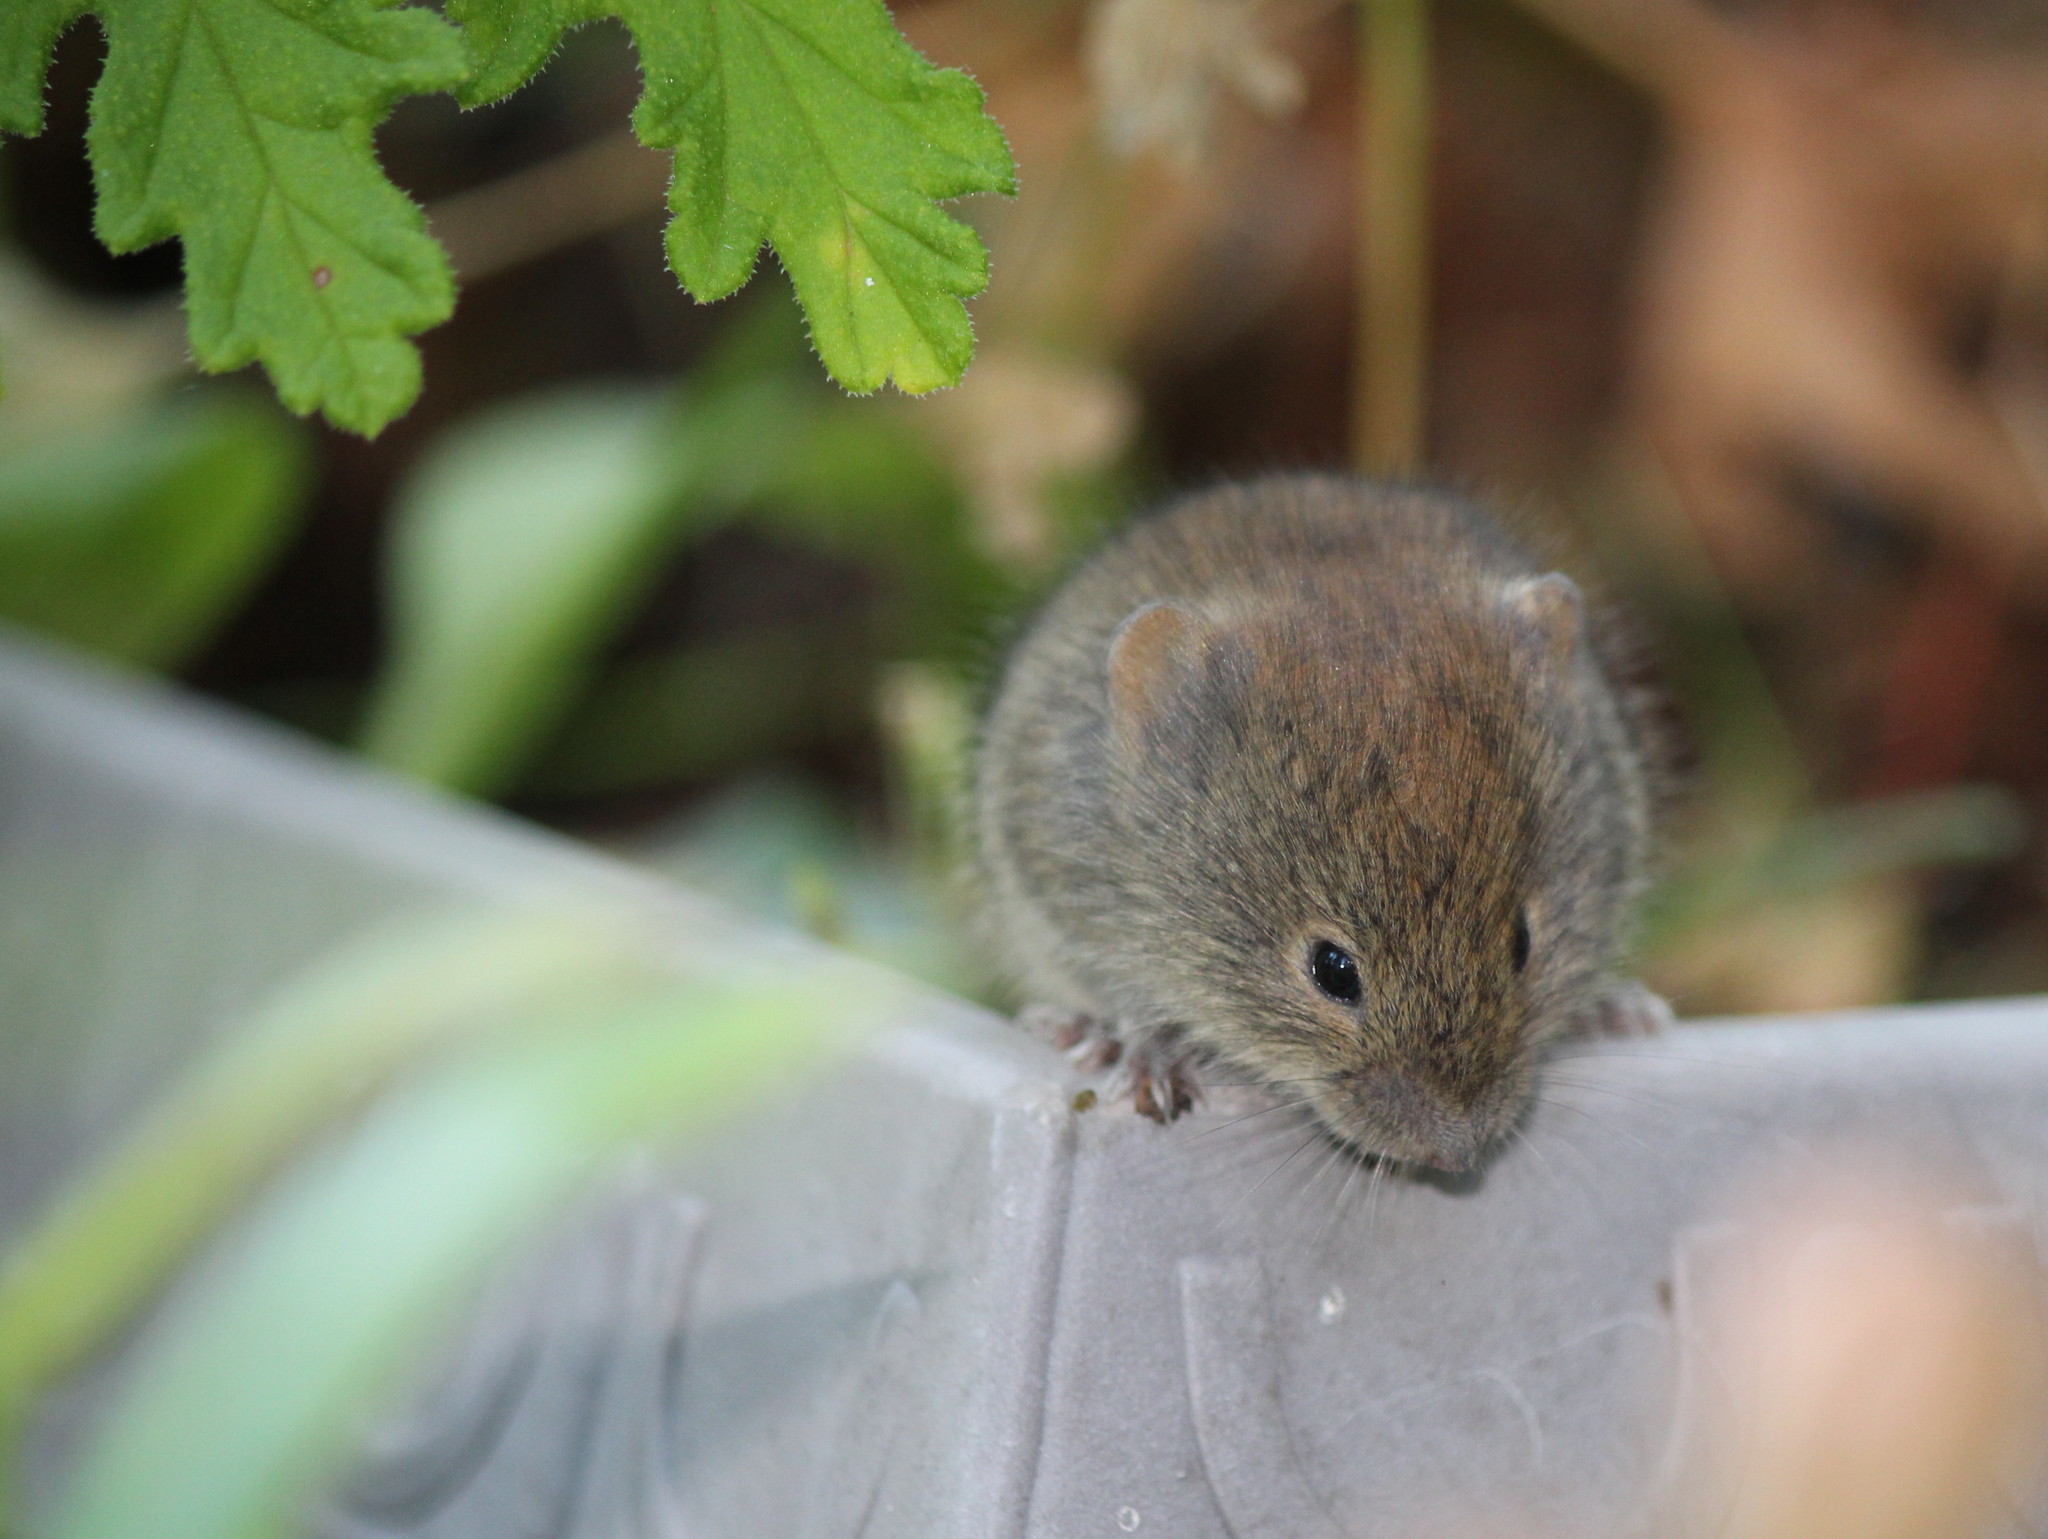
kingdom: Animalia
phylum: Chordata
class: Mammalia
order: Rodentia
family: Cricetidae
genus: Myodes
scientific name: Myodes gapperi
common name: Southern red-backed vole
